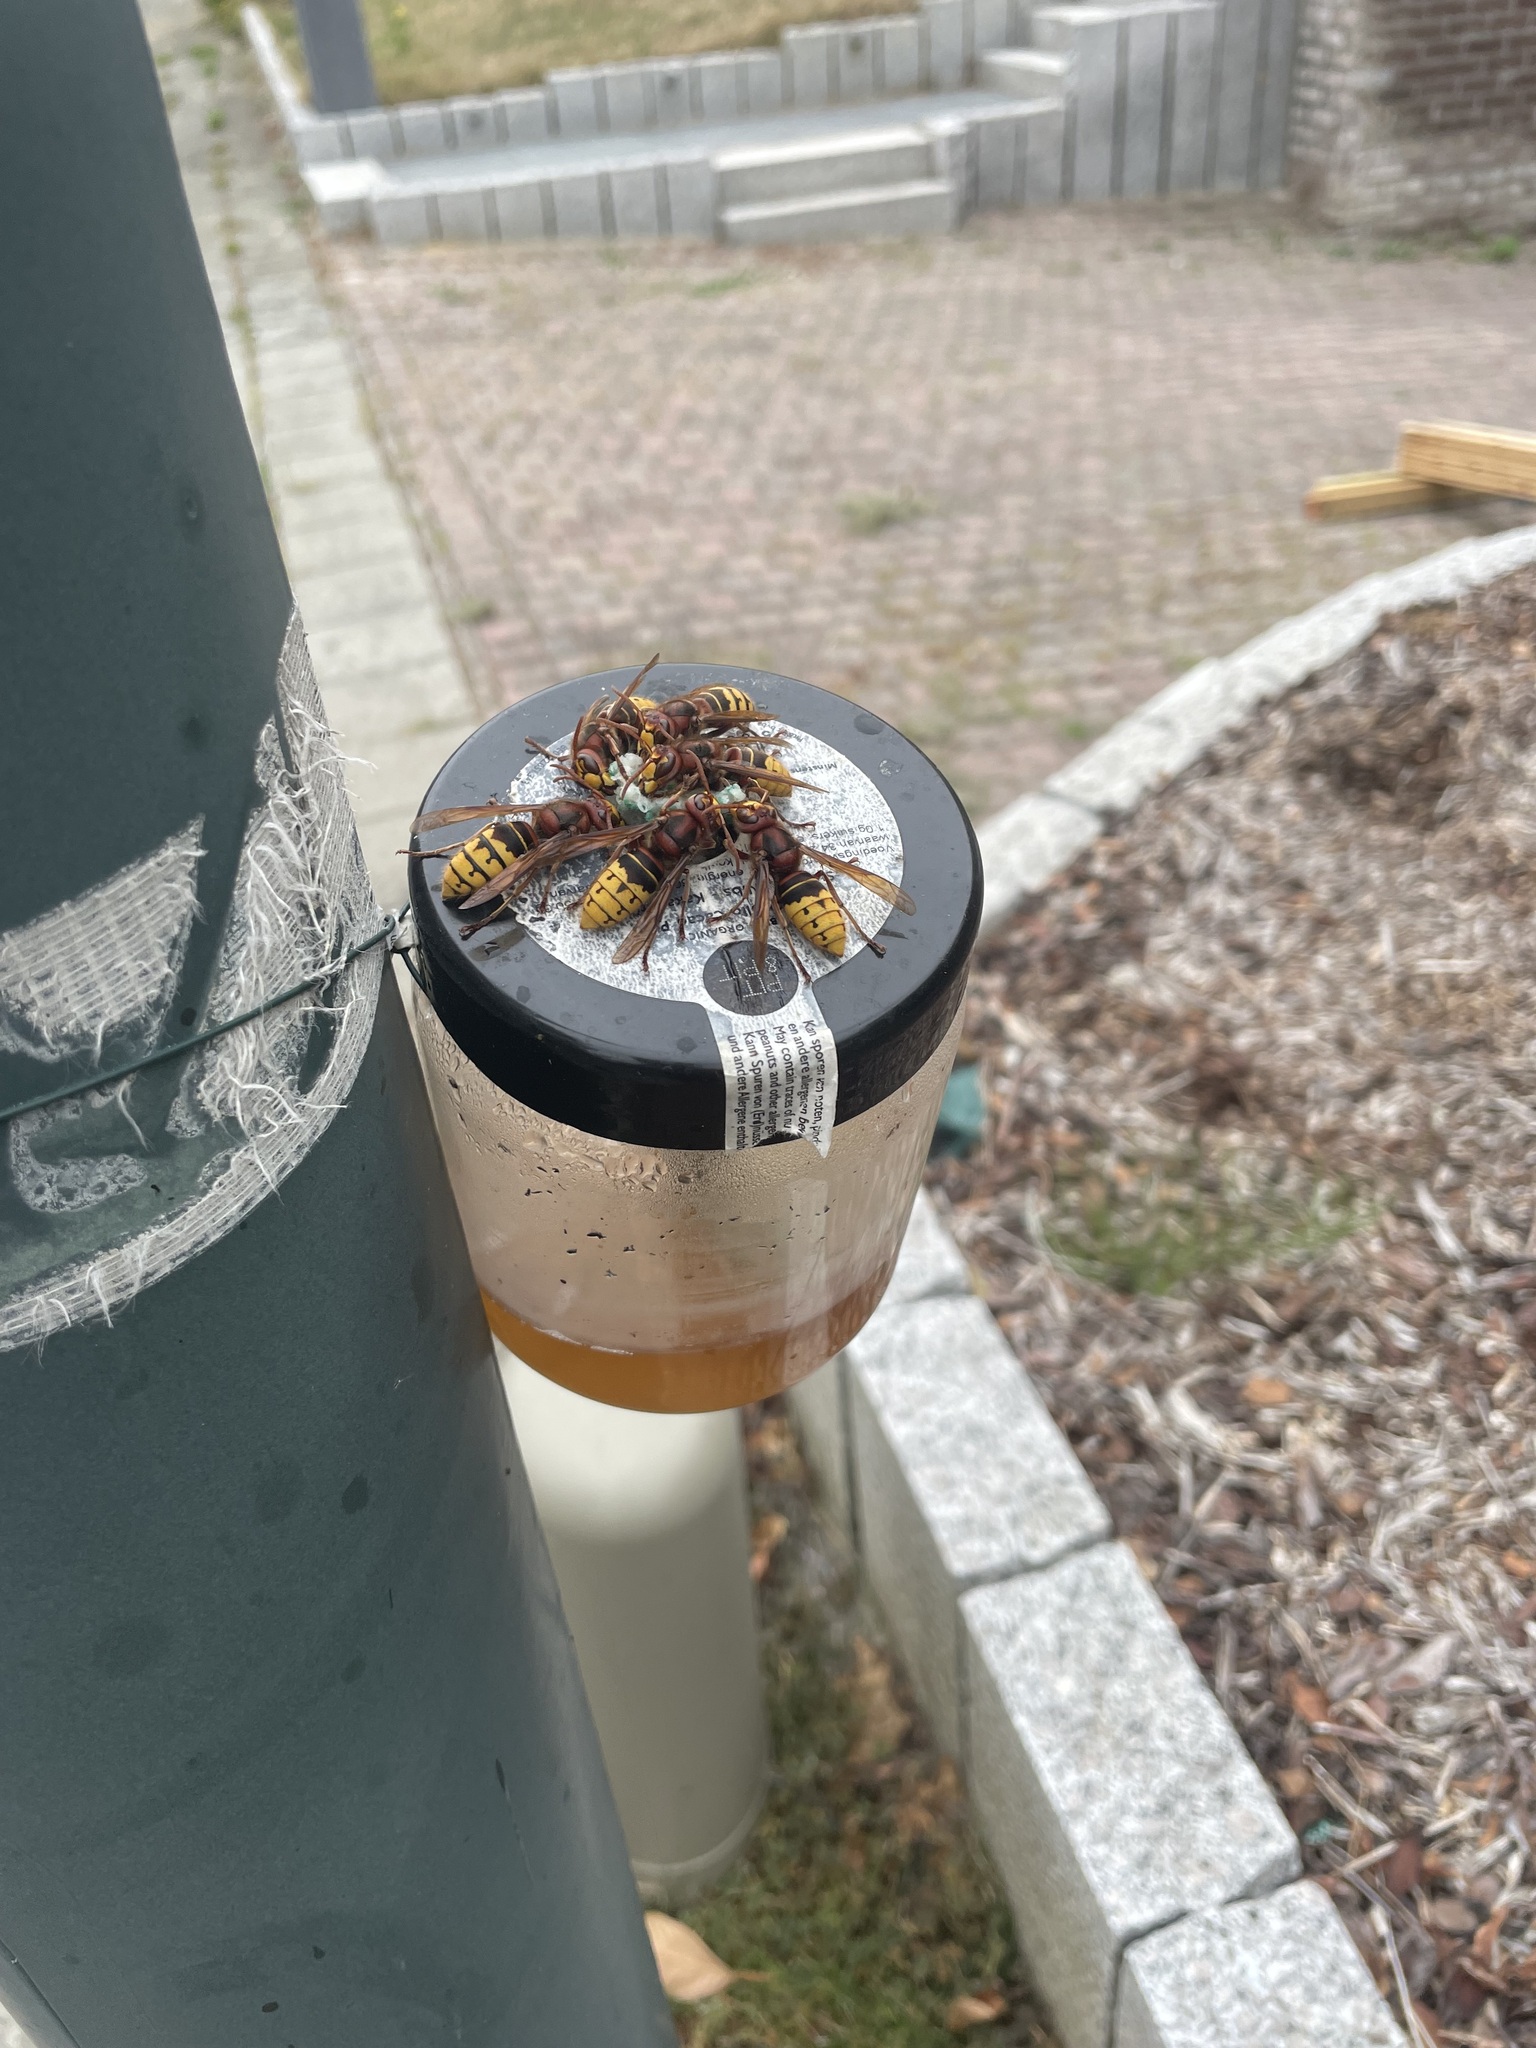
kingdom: Animalia
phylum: Arthropoda
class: Insecta
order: Hymenoptera
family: Vespidae
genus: Vespa
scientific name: Vespa crabro
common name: Hornet
